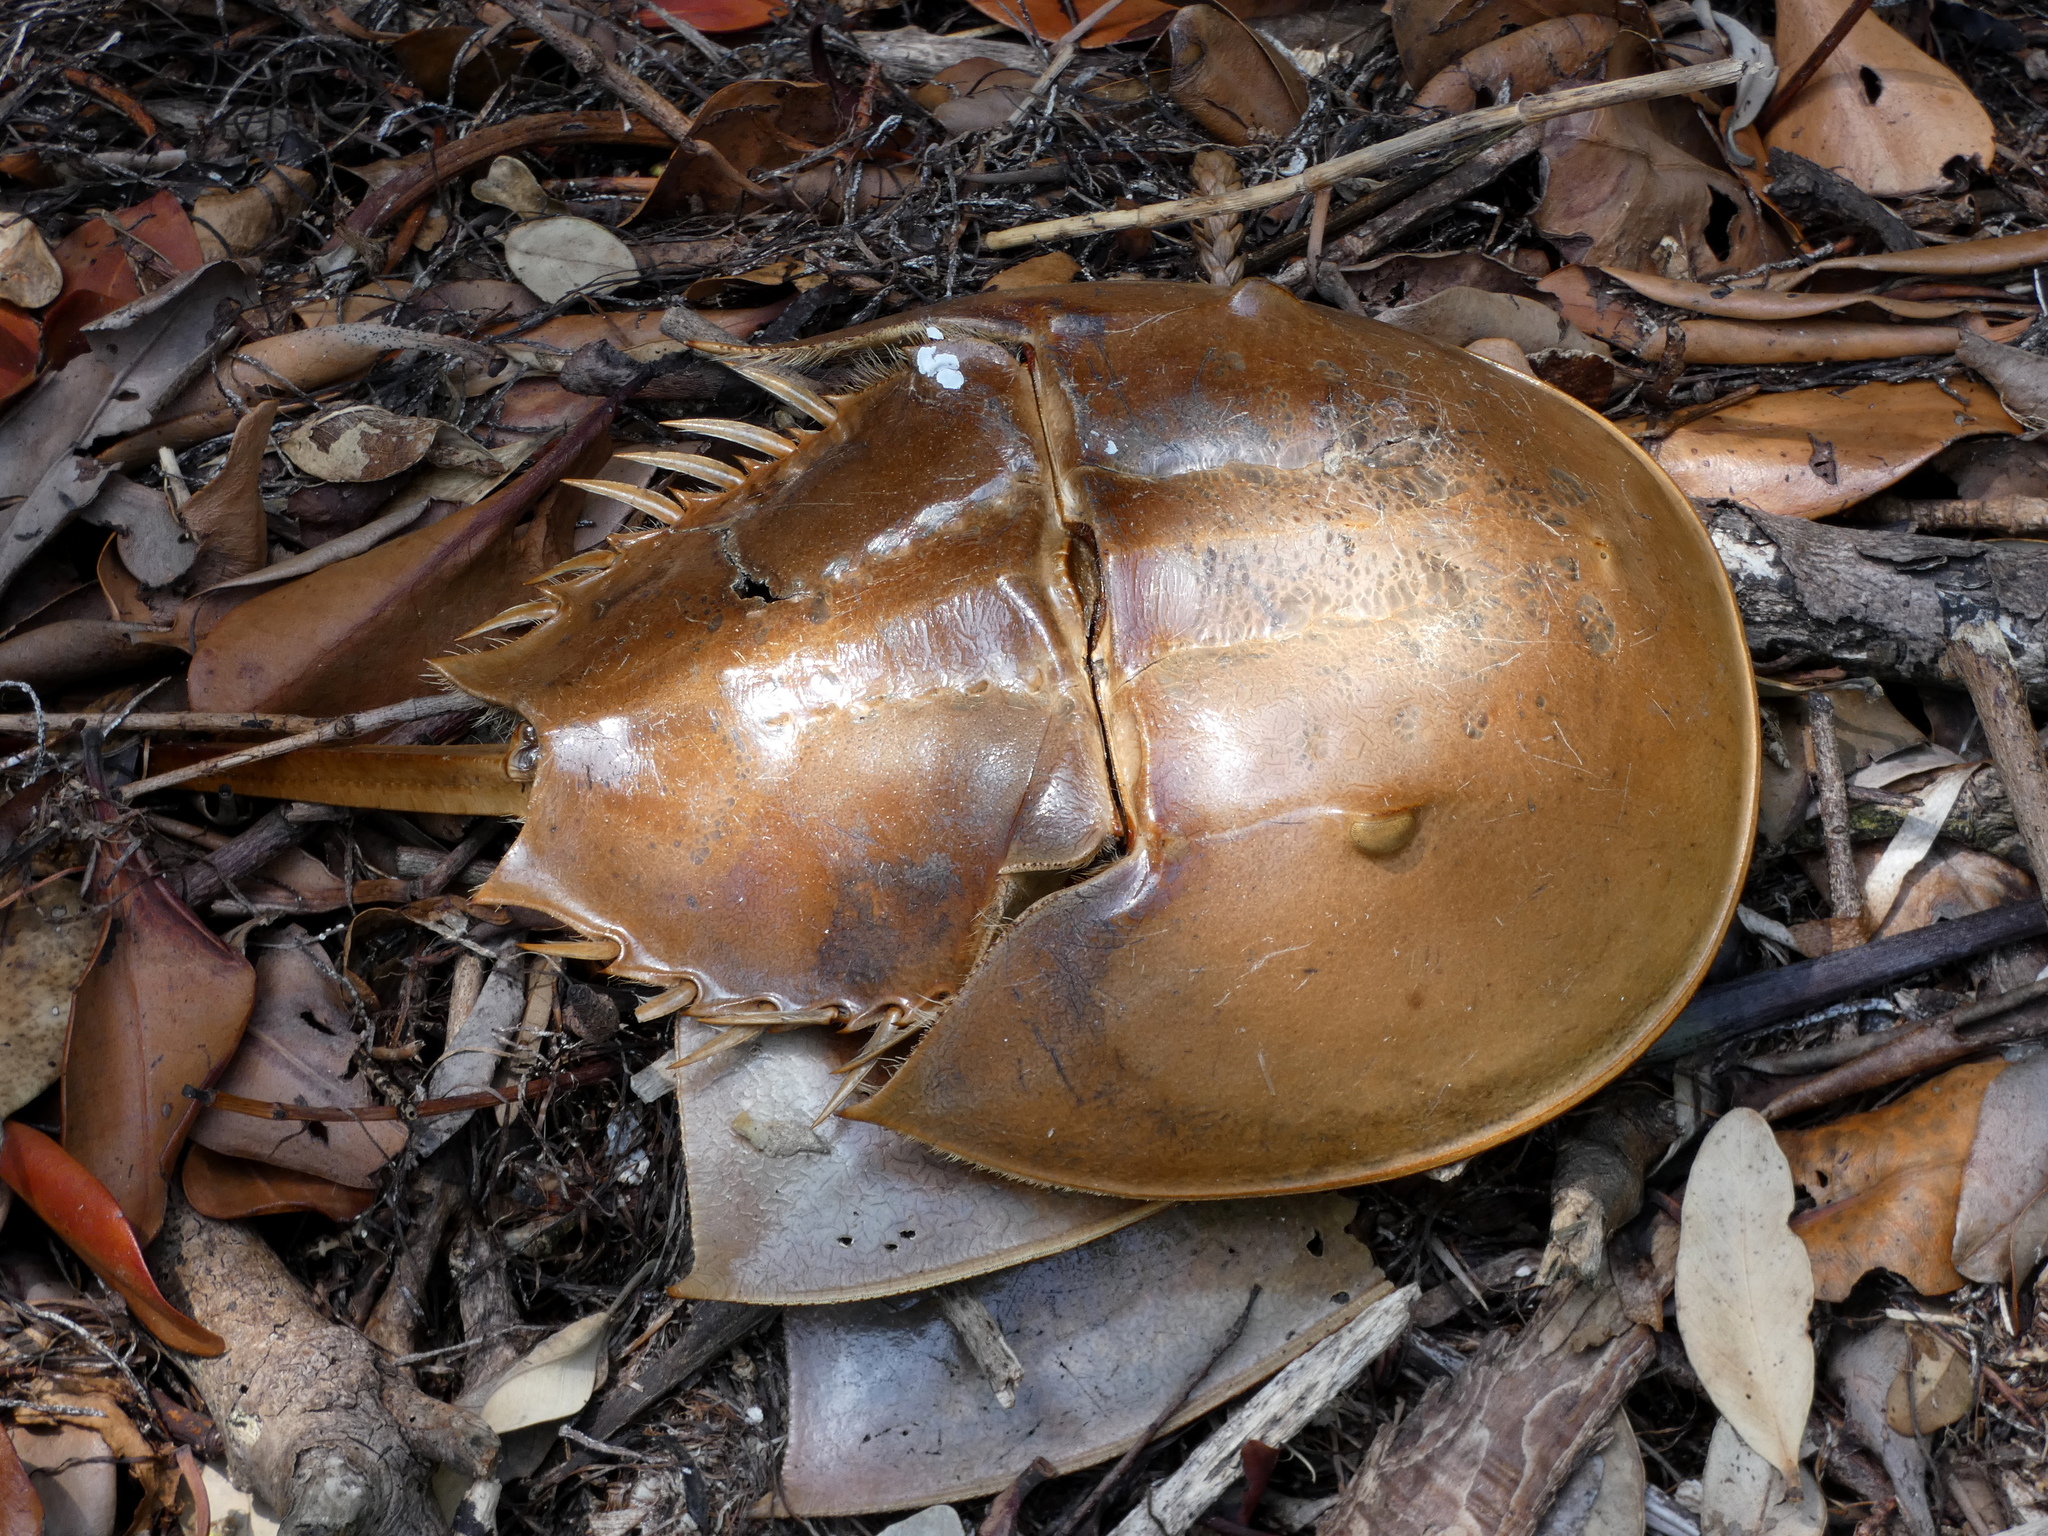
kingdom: Animalia
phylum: Arthropoda
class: Merostomata
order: Xiphosurida
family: Limulidae
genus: Limulus
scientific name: Limulus polyphemus
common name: Horseshoe crab
